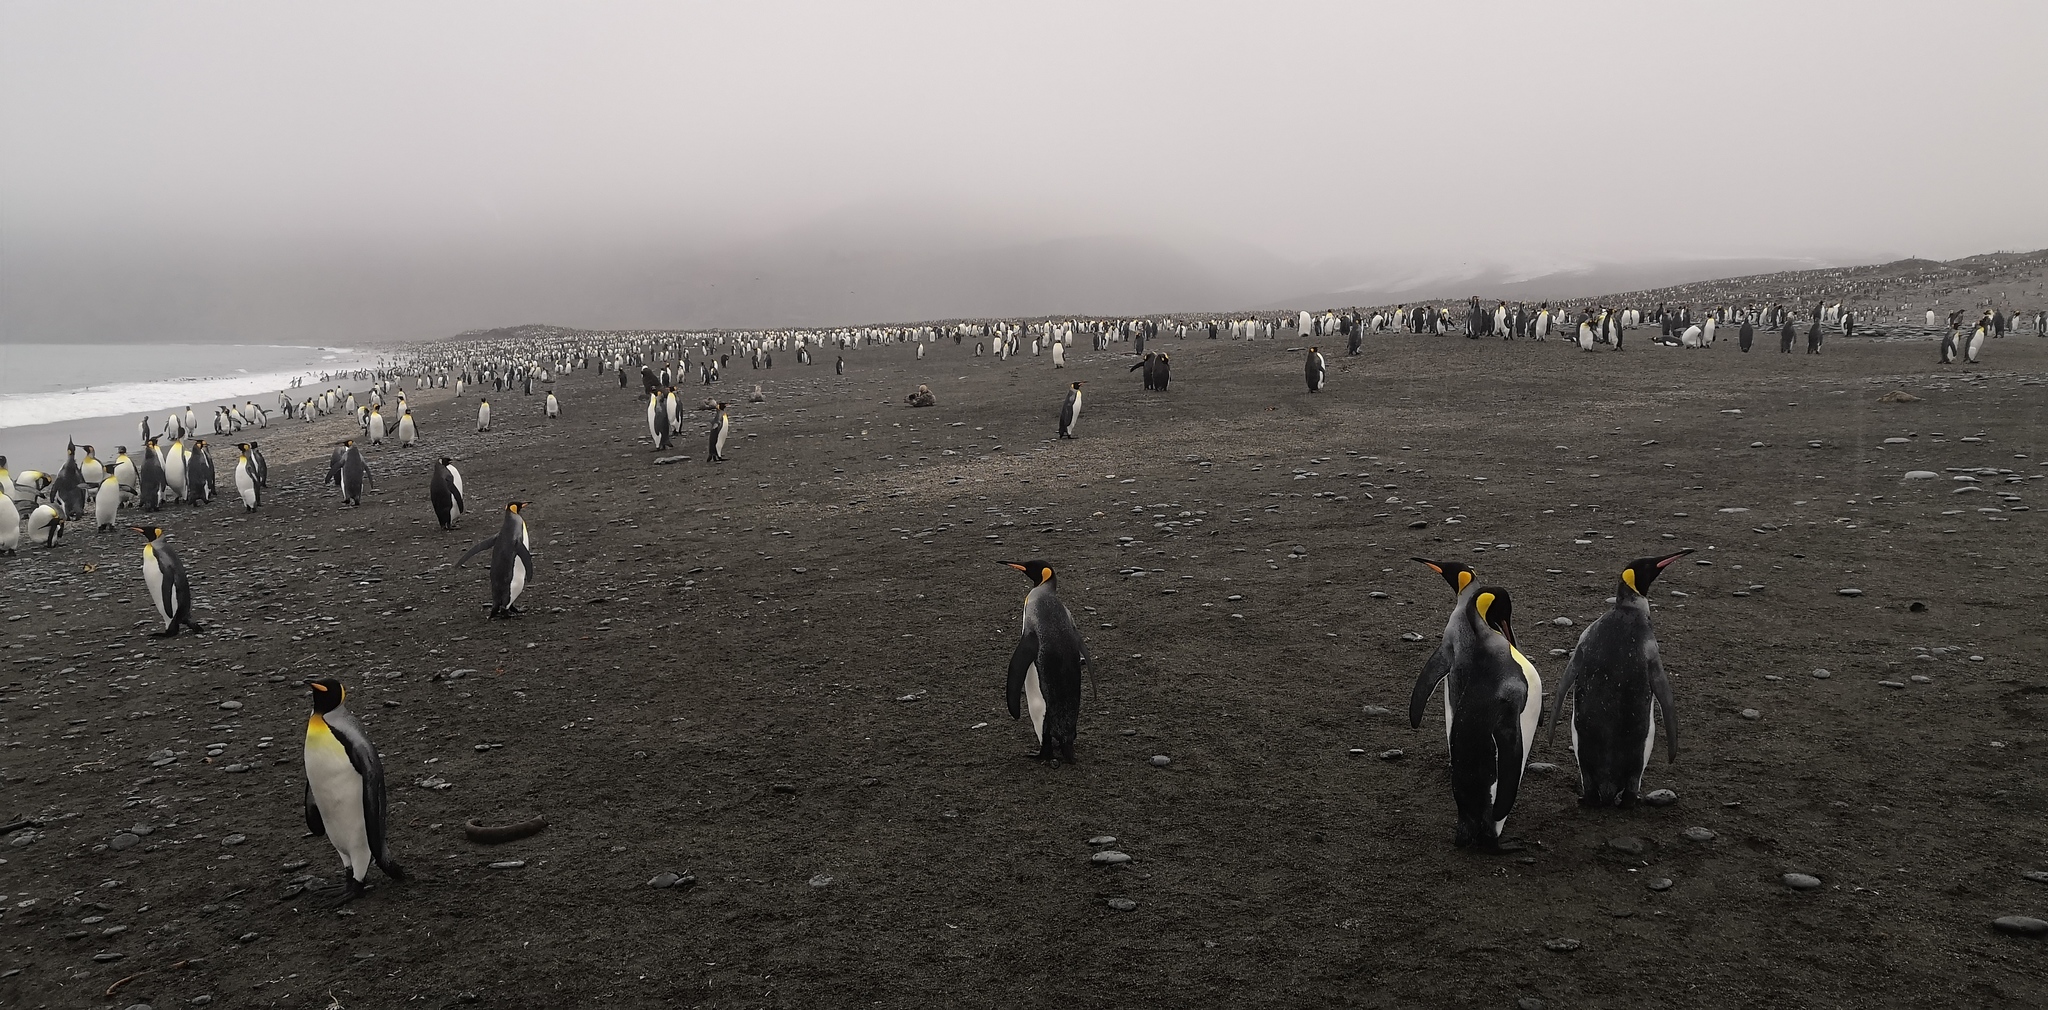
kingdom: Animalia
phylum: Chordata
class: Aves
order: Sphenisciformes
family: Spheniscidae
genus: Aptenodytes
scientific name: Aptenodytes patagonicus
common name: King penguin
